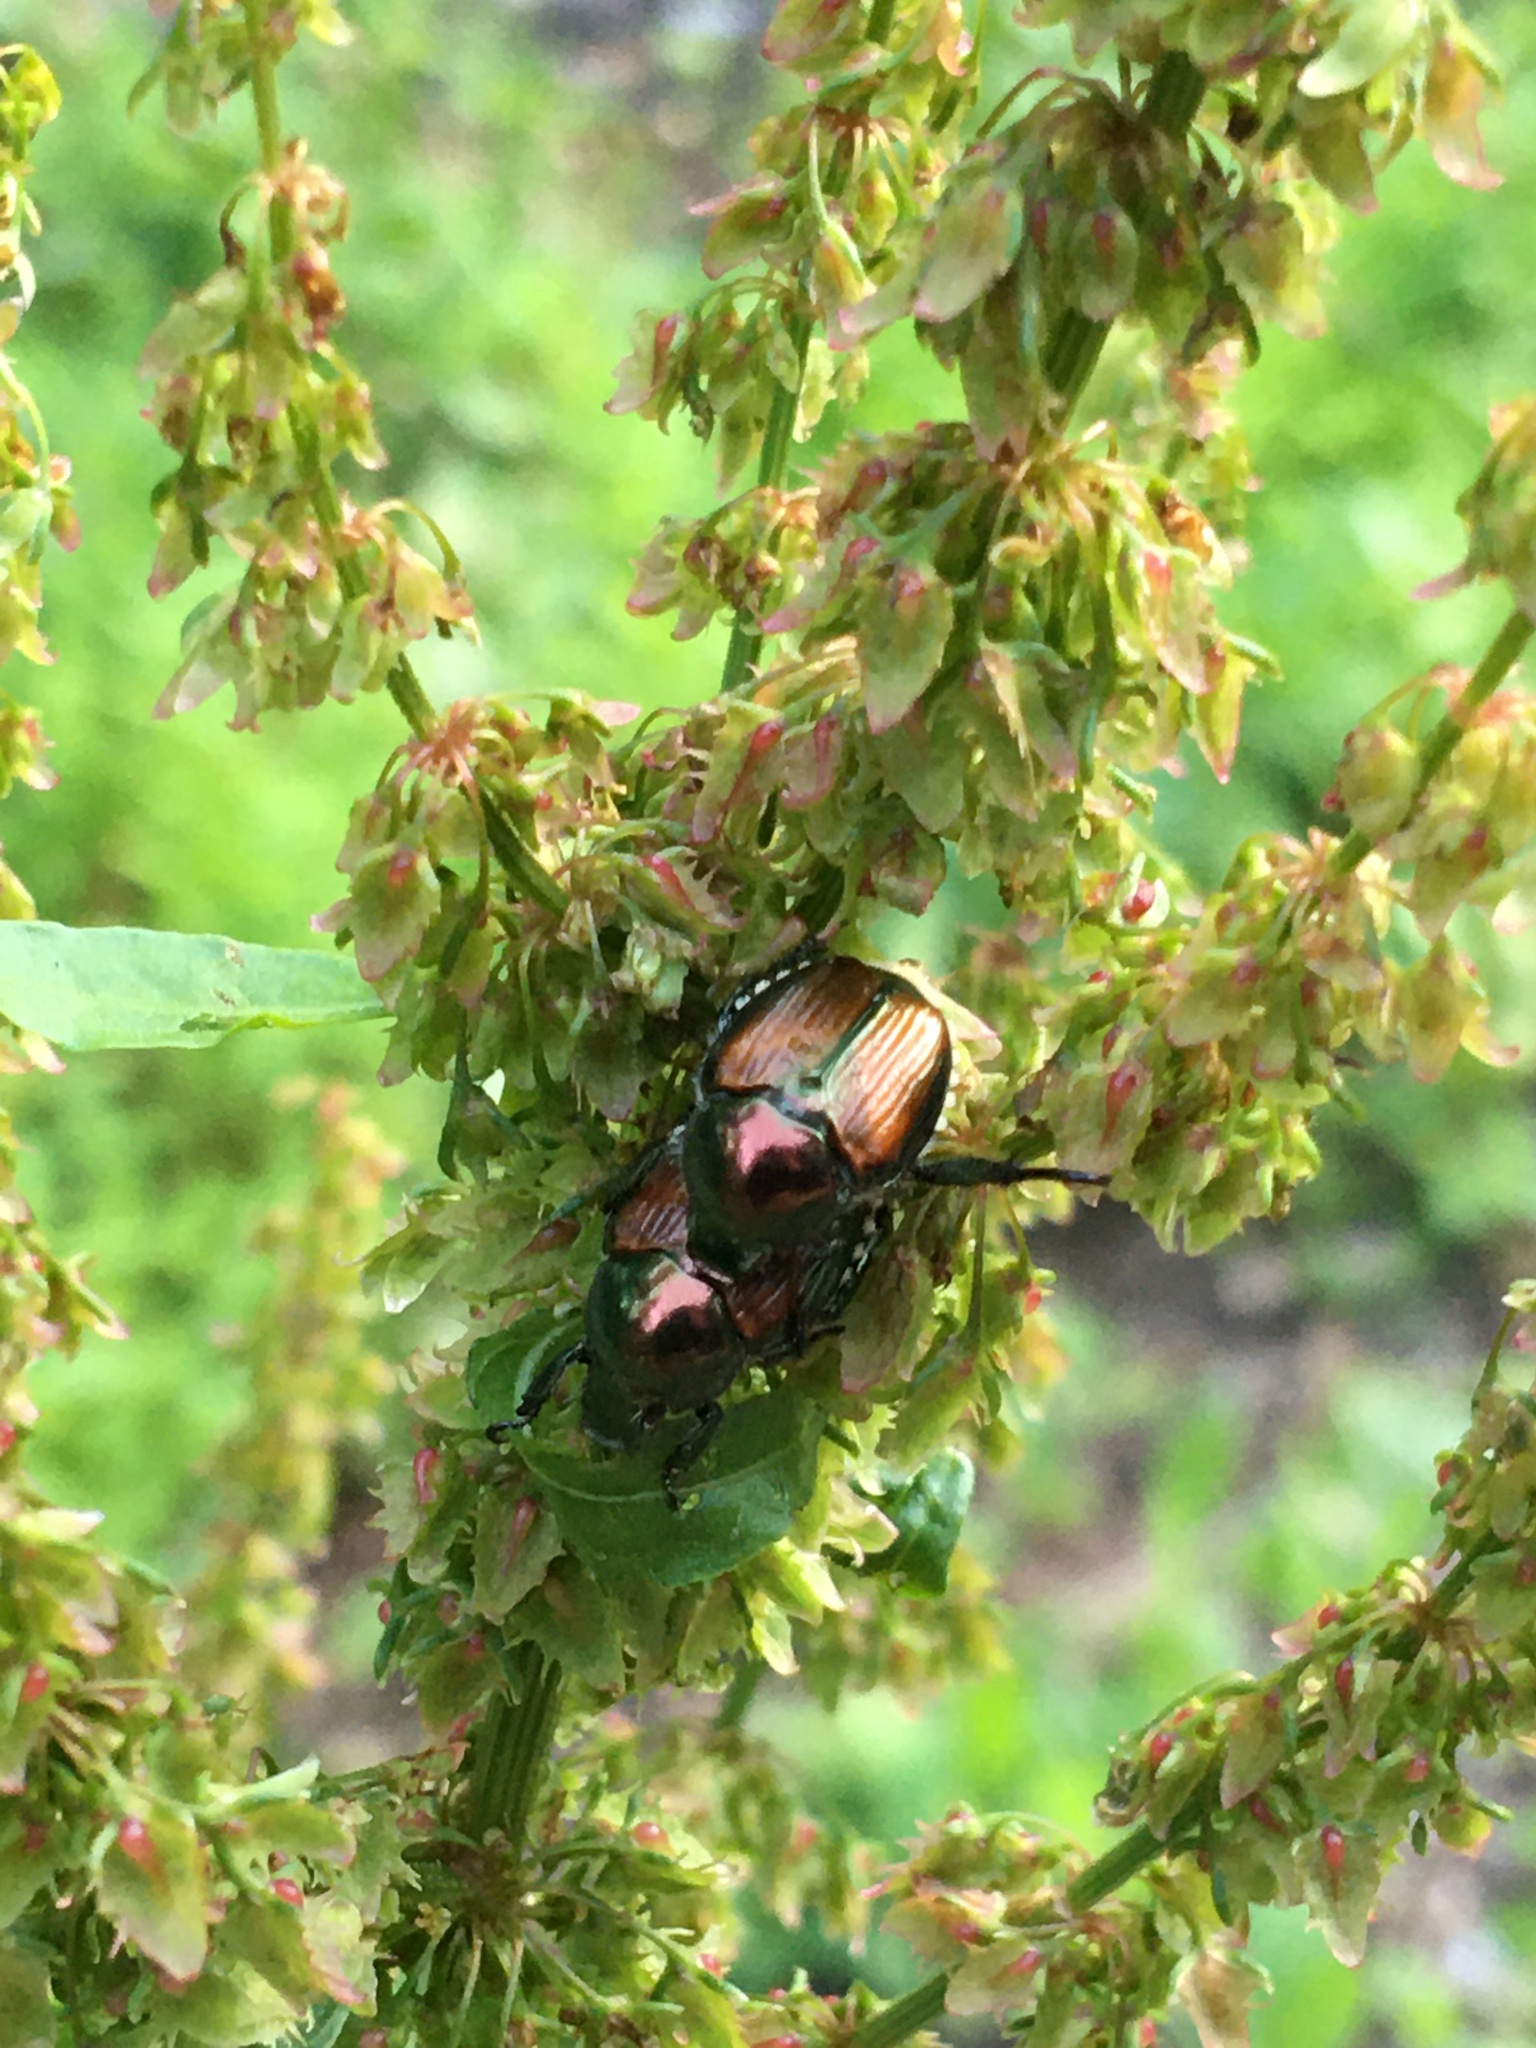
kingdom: Animalia
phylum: Arthropoda
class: Insecta
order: Coleoptera
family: Scarabaeidae
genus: Popillia
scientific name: Popillia japonica
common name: Japanese beetle
